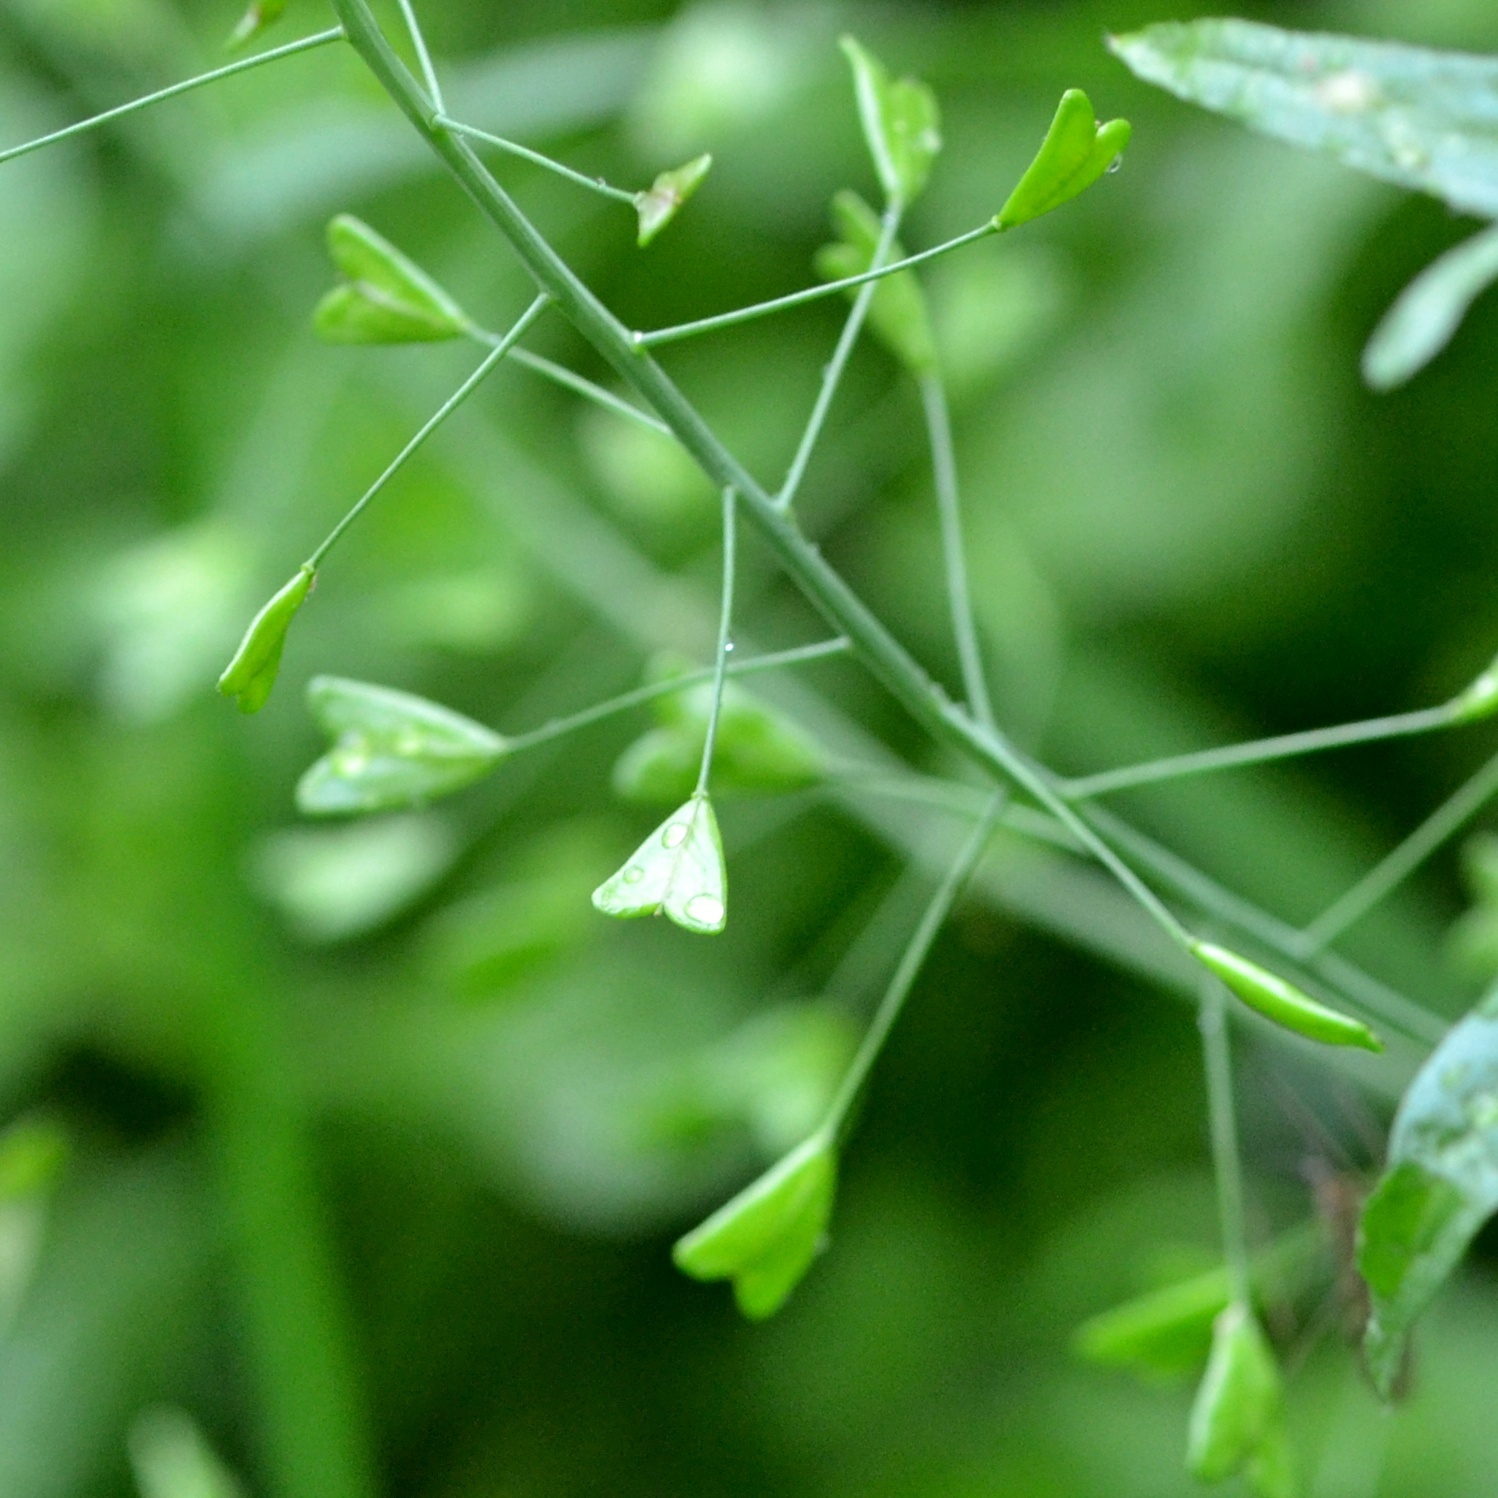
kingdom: Plantae
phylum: Tracheophyta
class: Magnoliopsida
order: Brassicales
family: Brassicaceae
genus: Capsella
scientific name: Capsella bursa-pastoris
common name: Shepherd's purse
